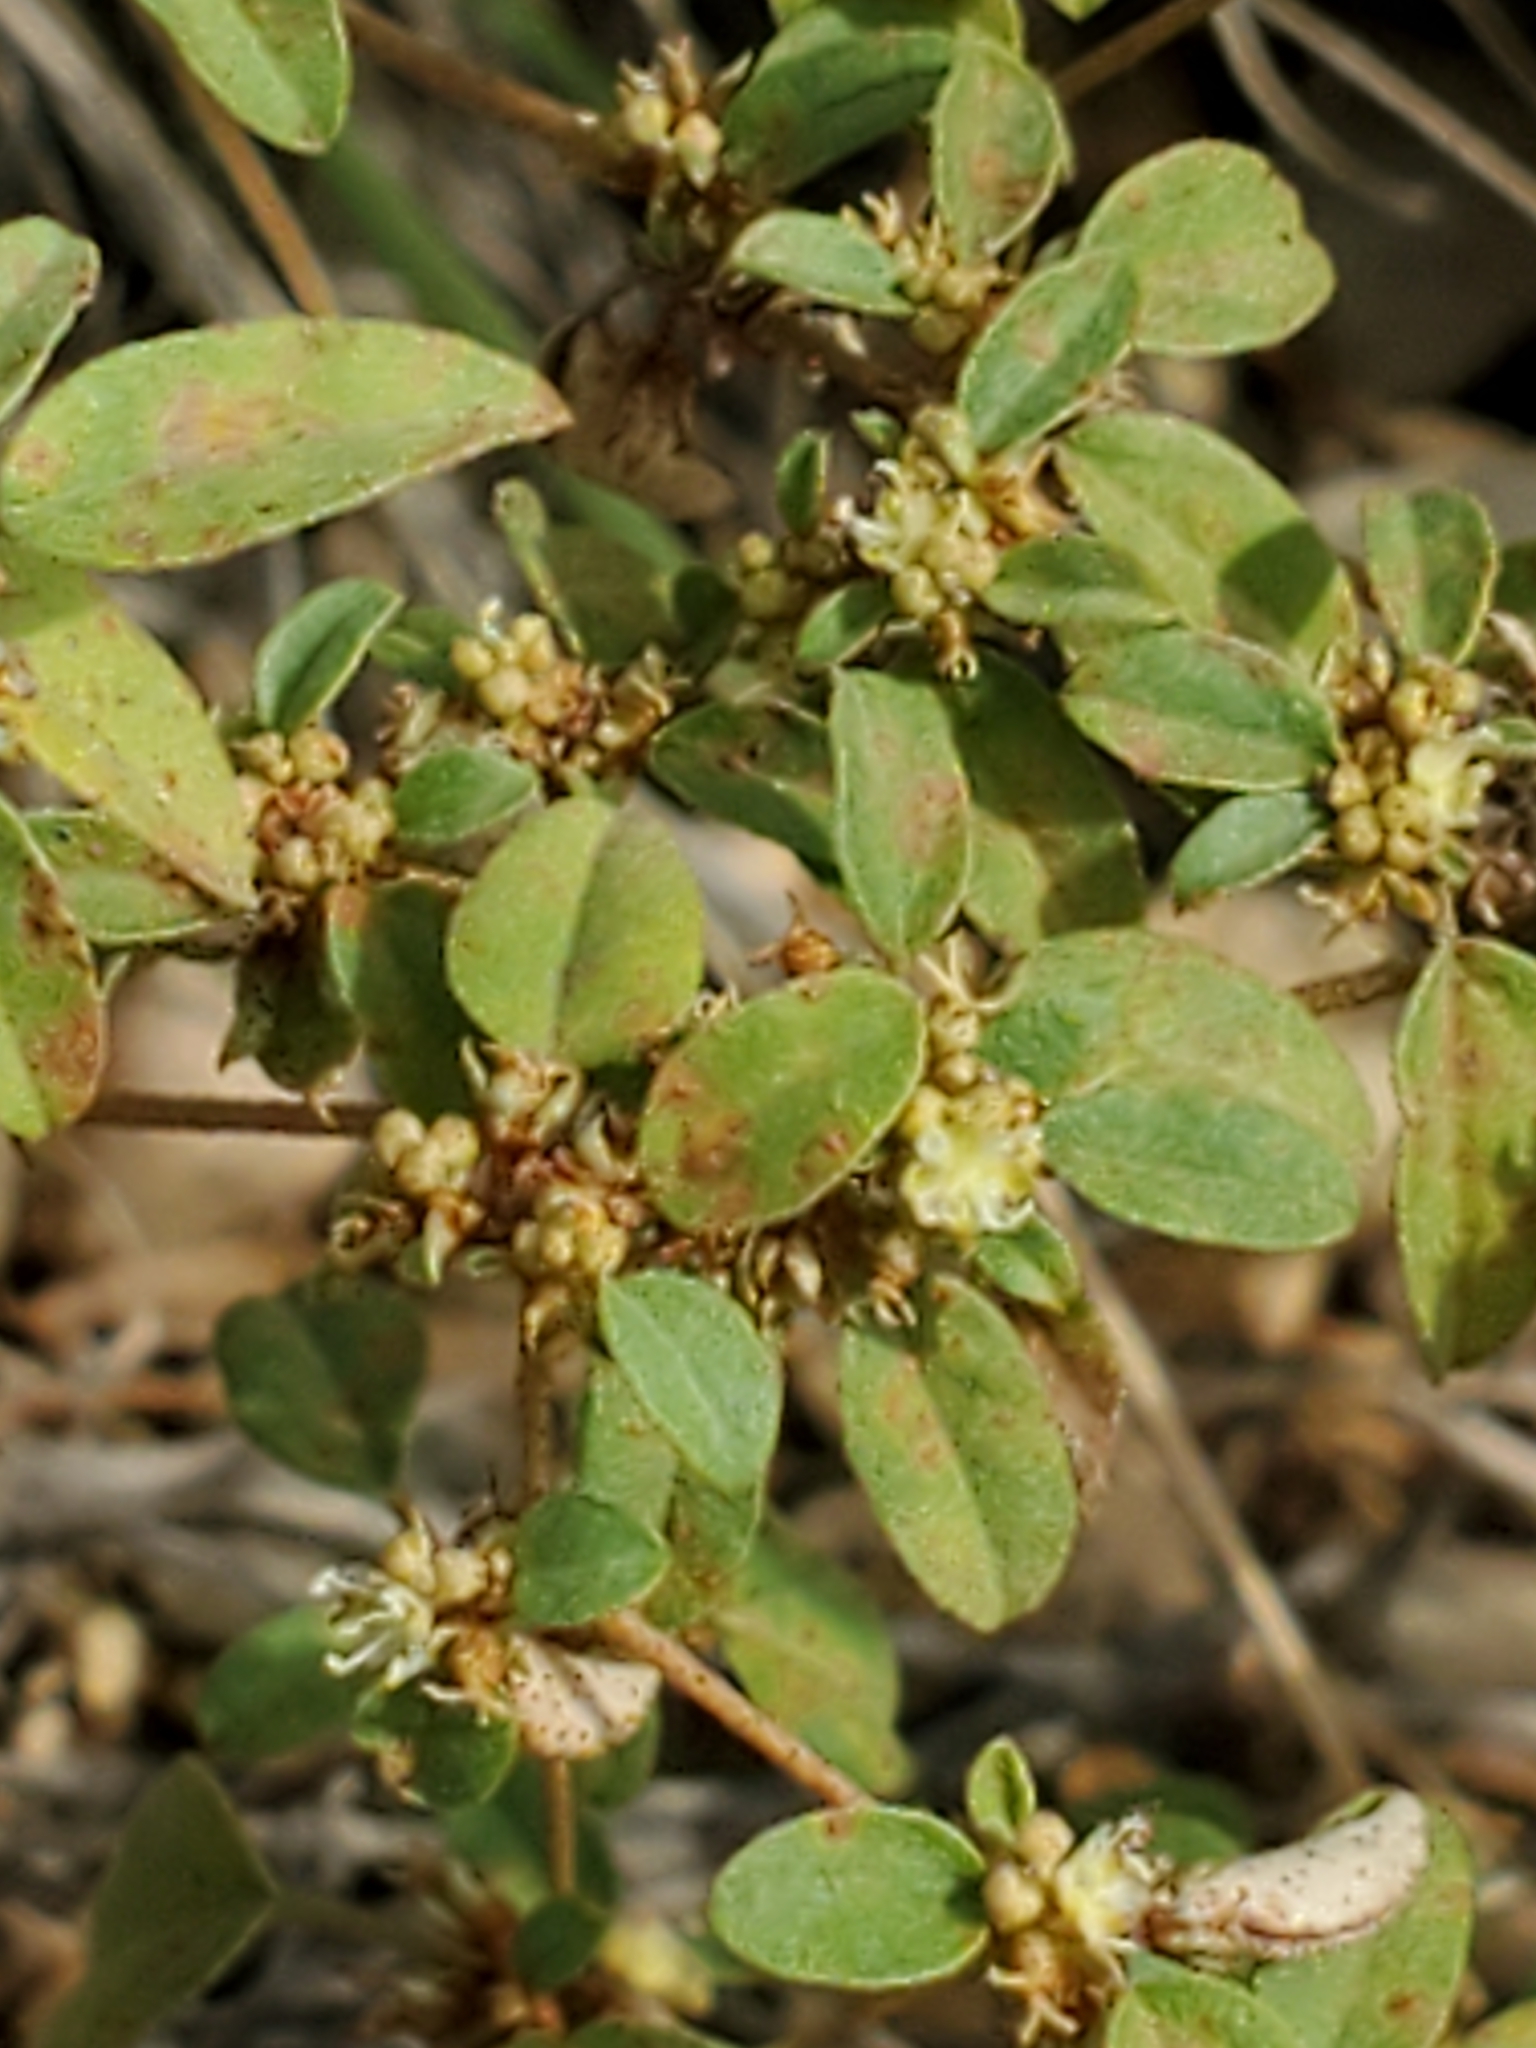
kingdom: Plantae
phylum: Tracheophyta
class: Magnoliopsida
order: Malpighiales
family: Euphorbiaceae
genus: Croton
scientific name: Croton monanthogynus
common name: One-seed croton
